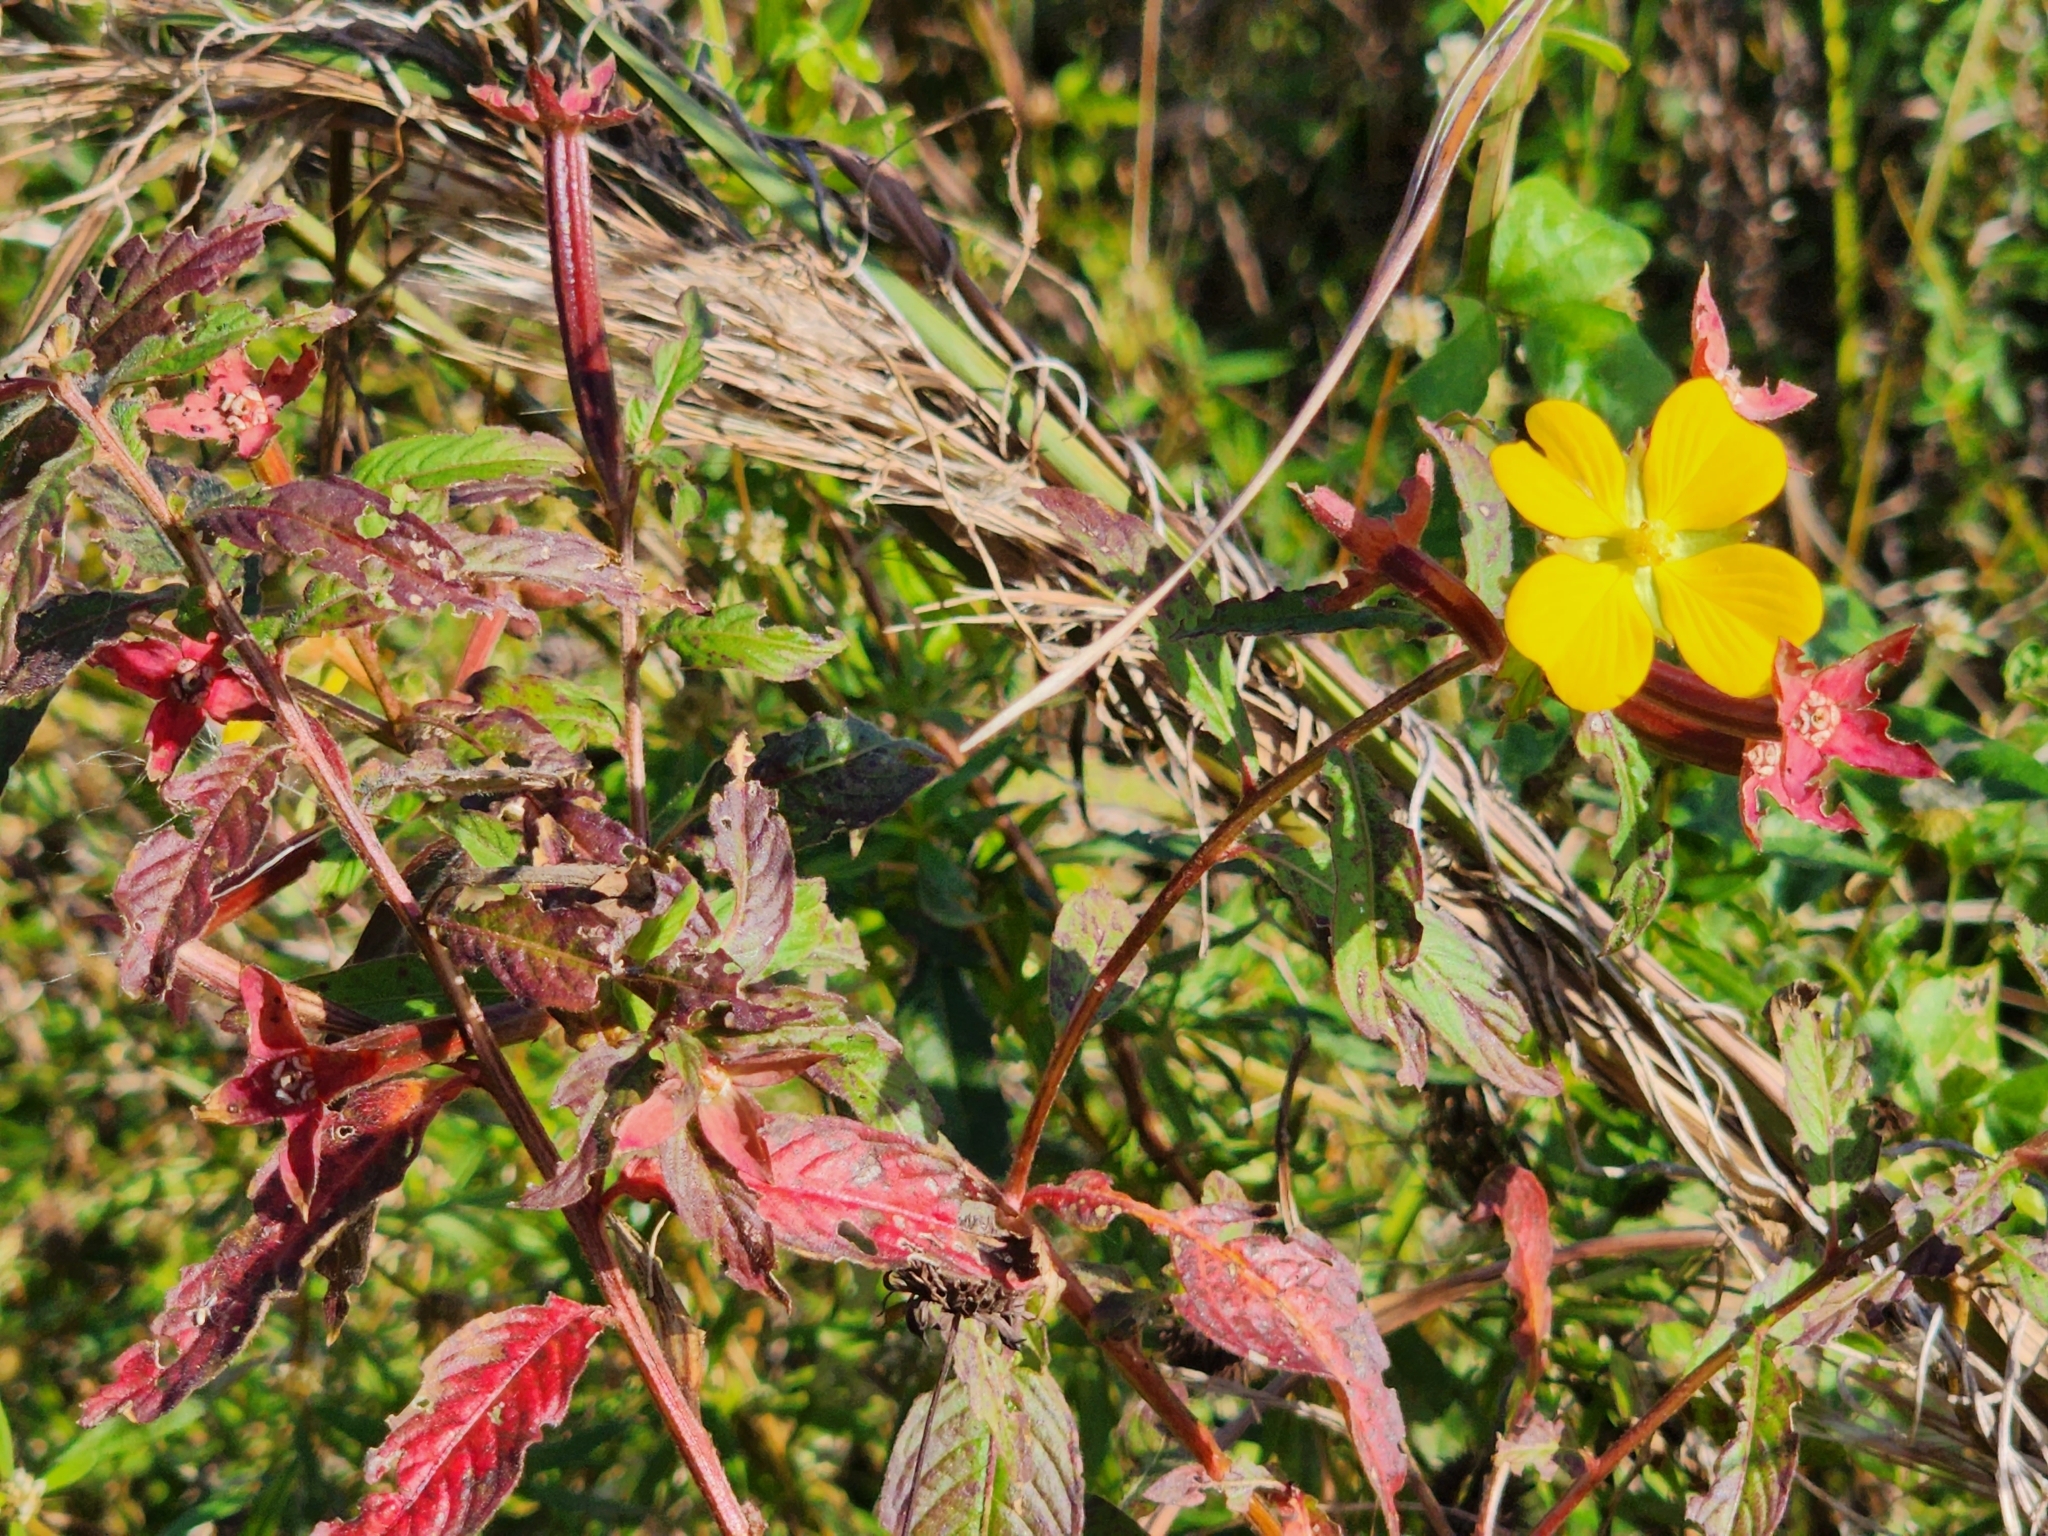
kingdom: Plantae
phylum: Tracheophyta
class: Magnoliopsida
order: Myrtales
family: Onagraceae
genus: Ludwigia
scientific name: Ludwigia octovalvis
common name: Water-primrose
